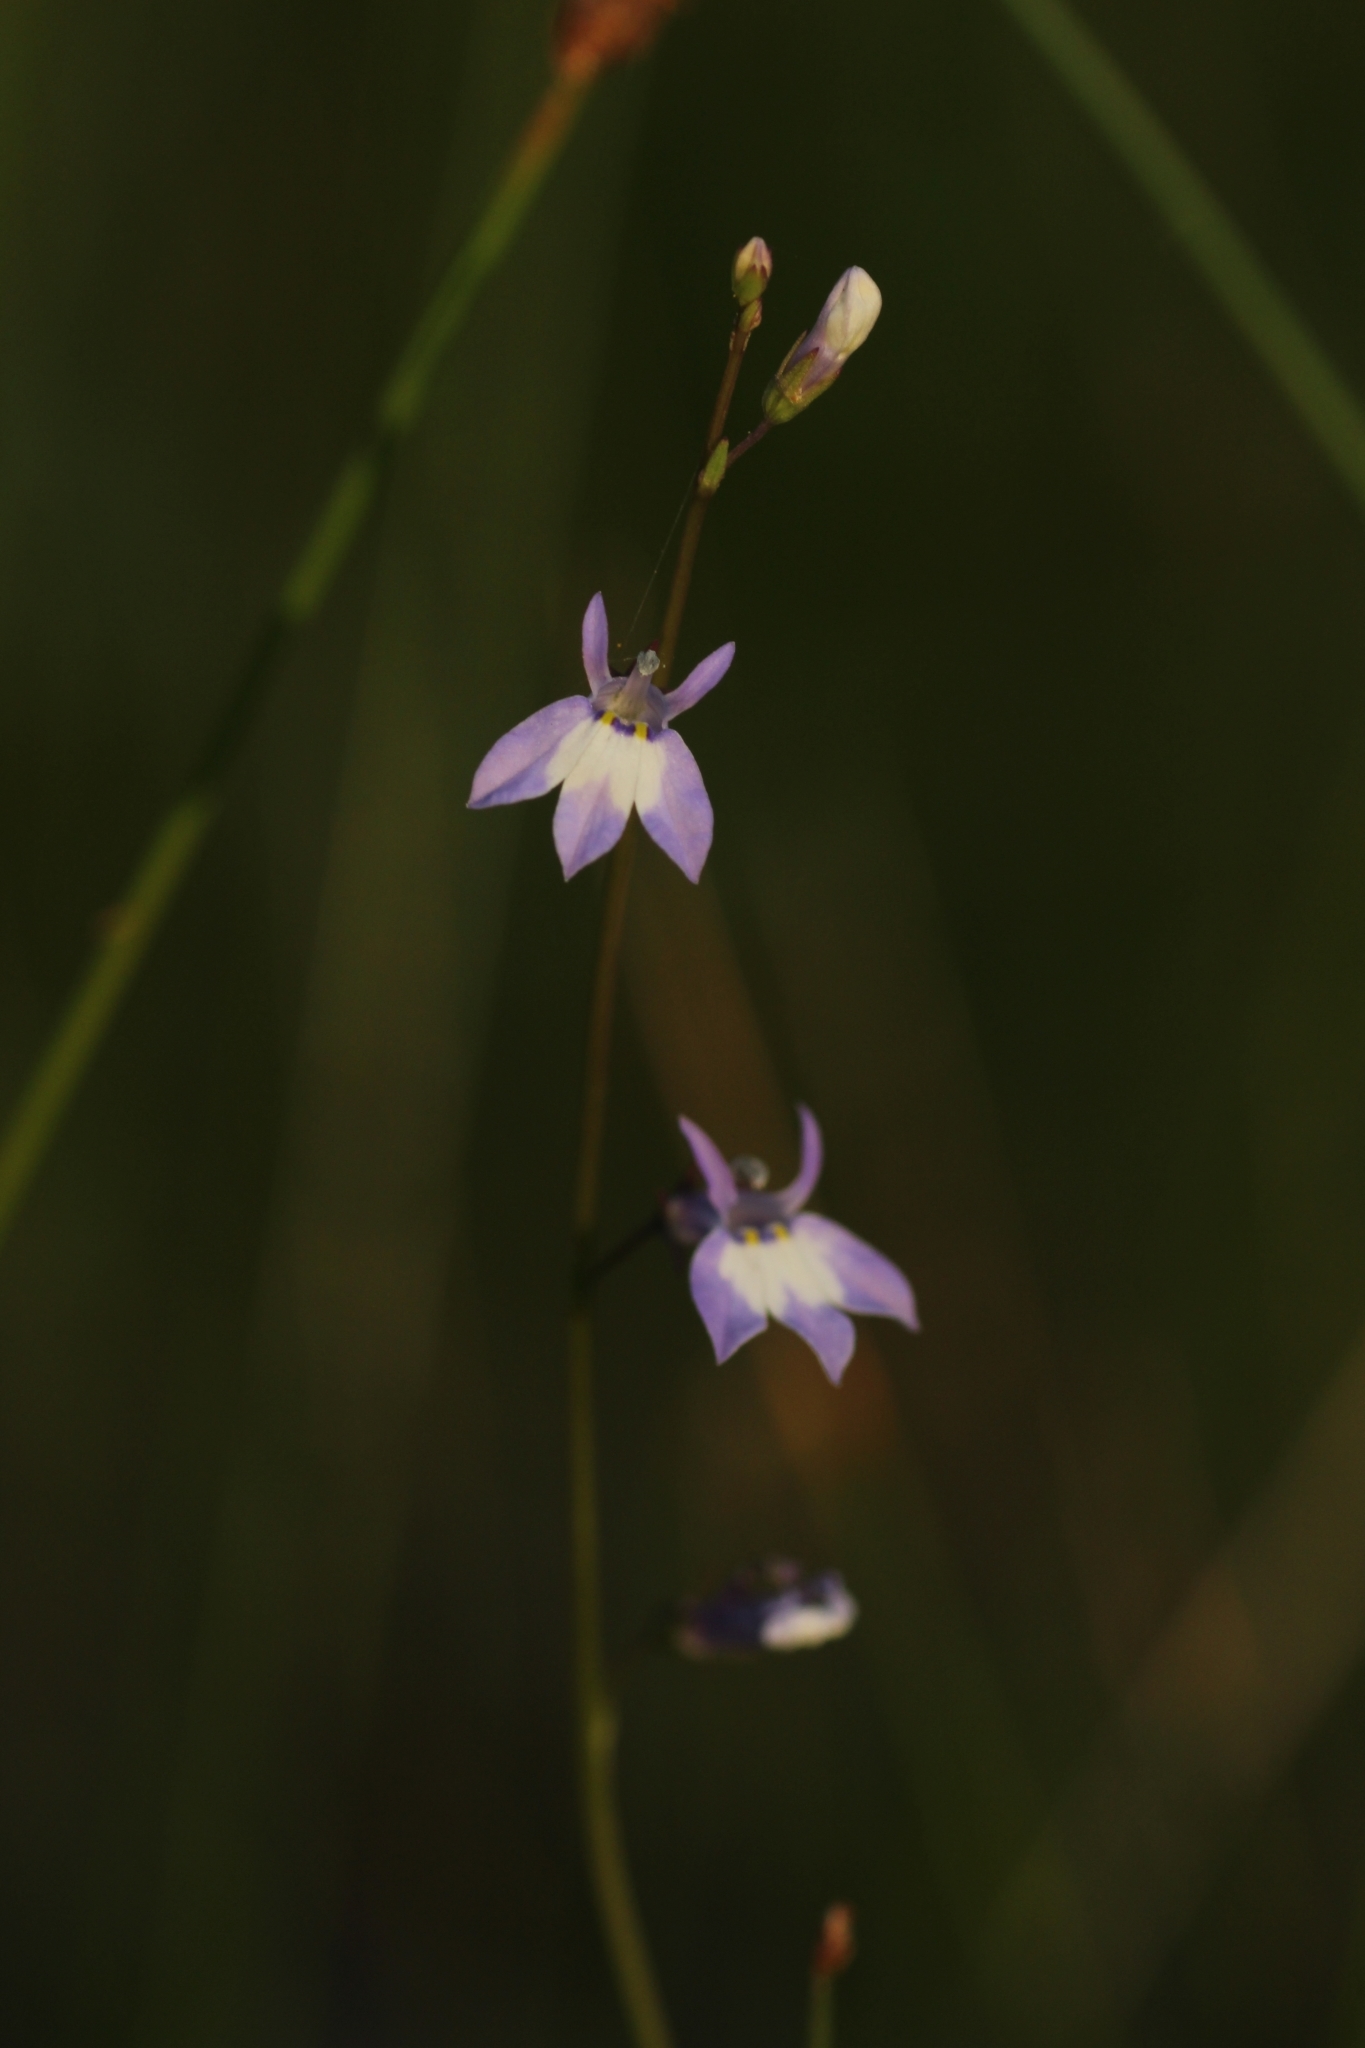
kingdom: Plantae
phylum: Tracheophyta
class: Magnoliopsida
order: Asterales
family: Campanulaceae
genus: Lobelia
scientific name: Lobelia feayana
